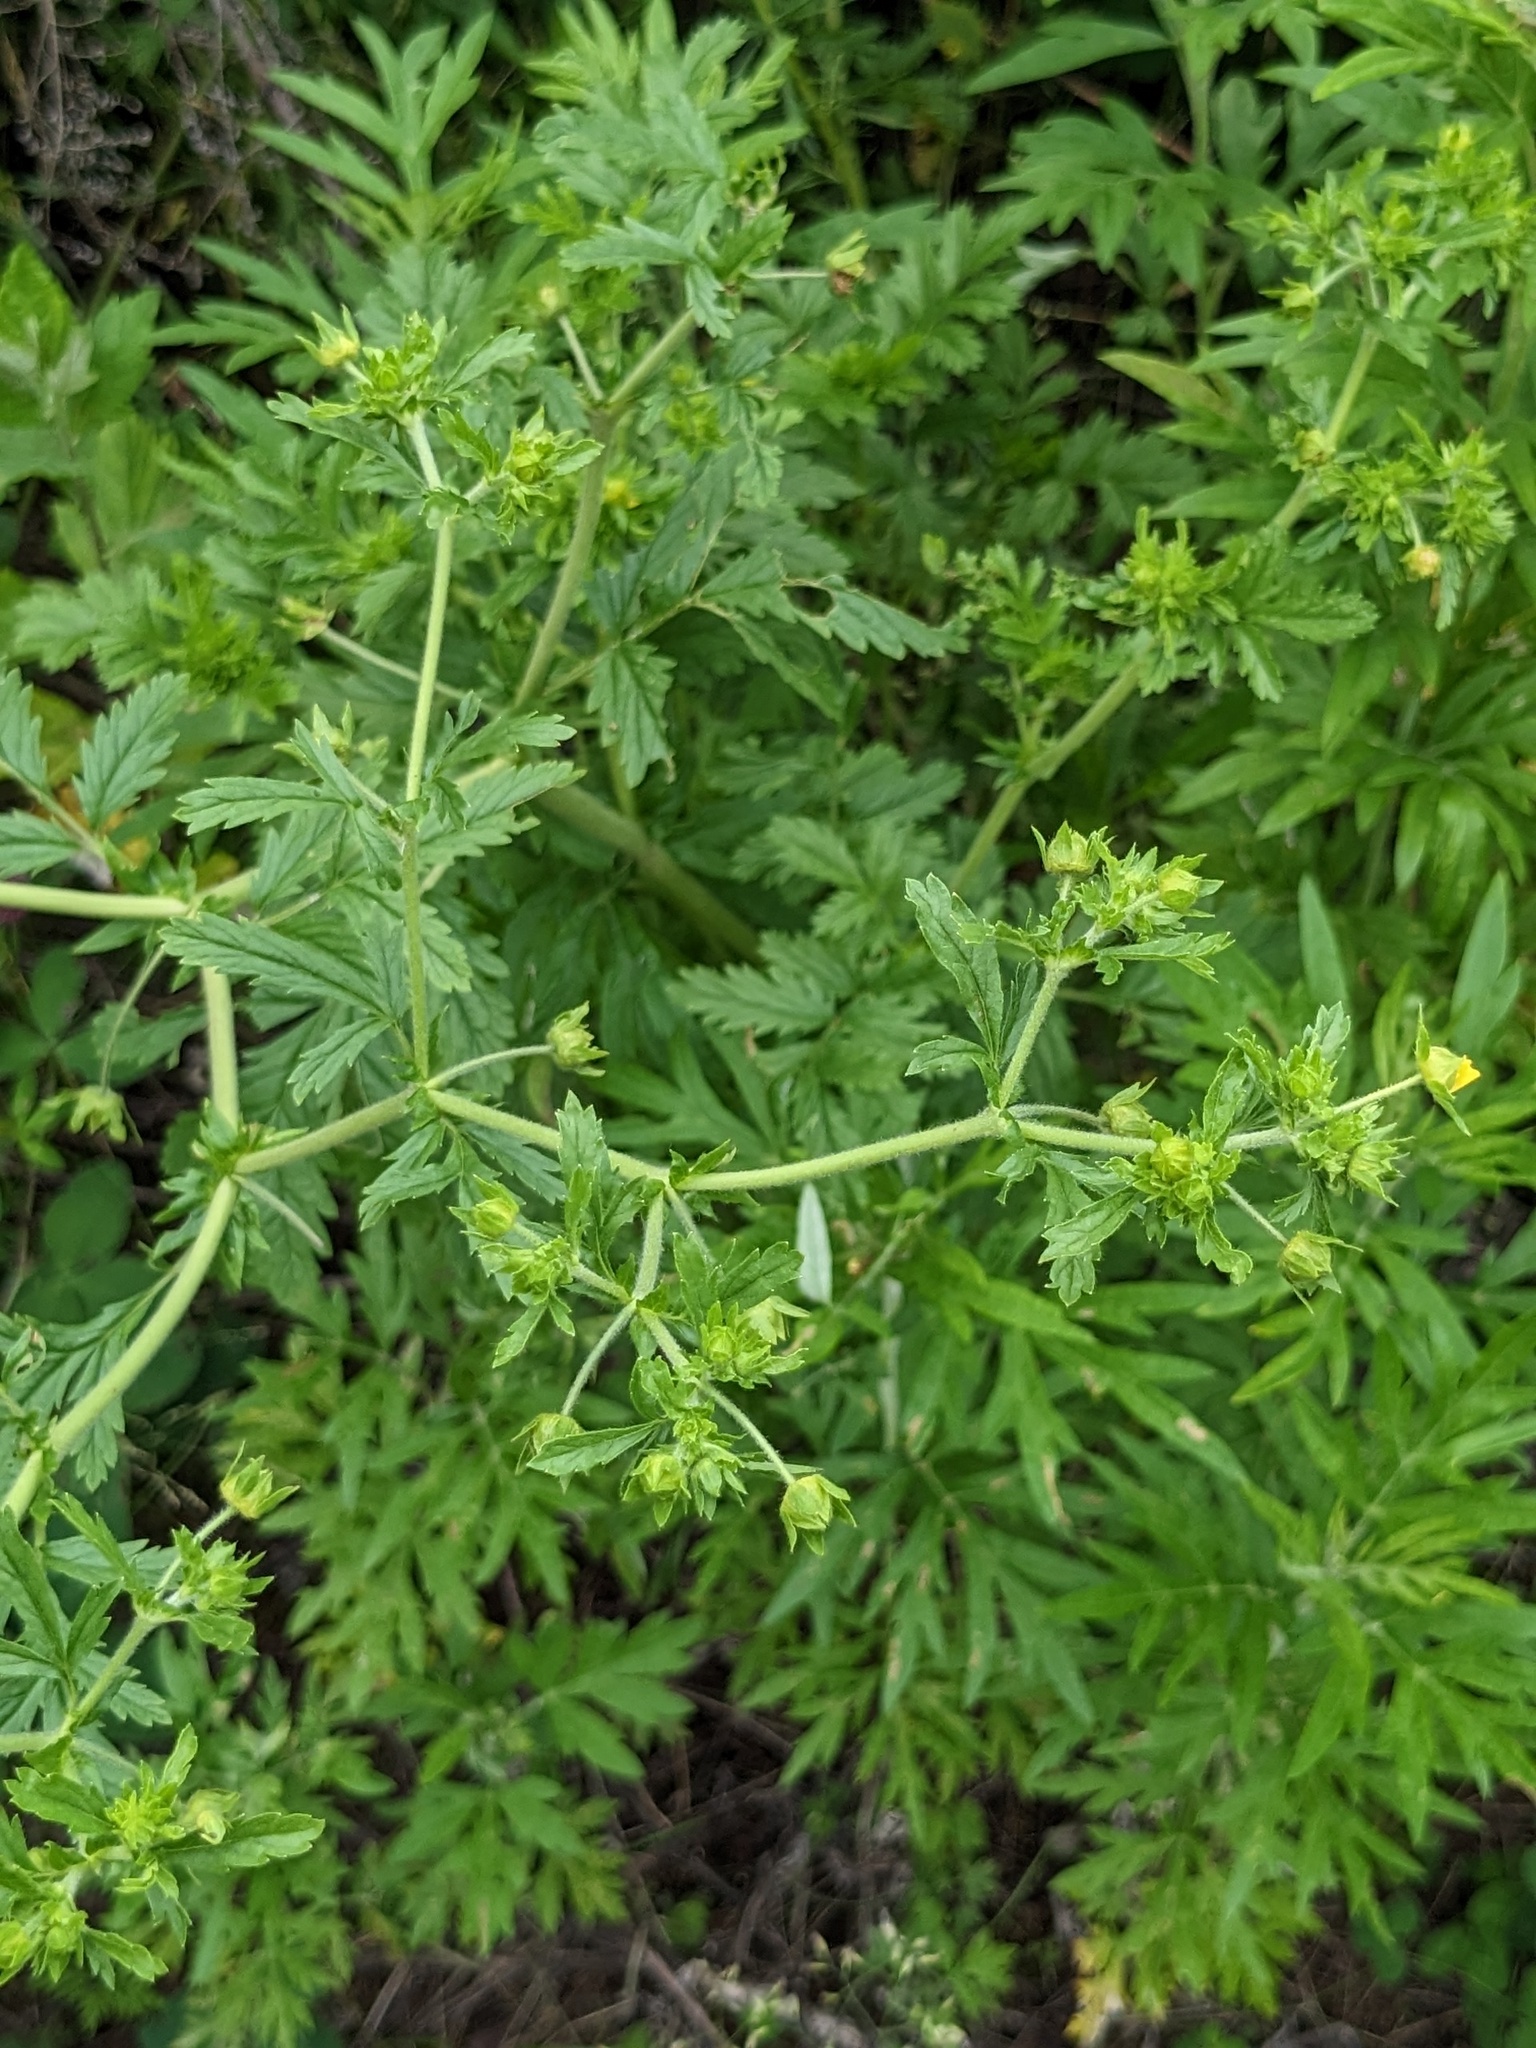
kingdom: Plantae
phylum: Tracheophyta
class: Magnoliopsida
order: Rosales
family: Rosaceae
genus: Potentilla
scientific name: Potentilla supina
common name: Prostrate cinquefoil
